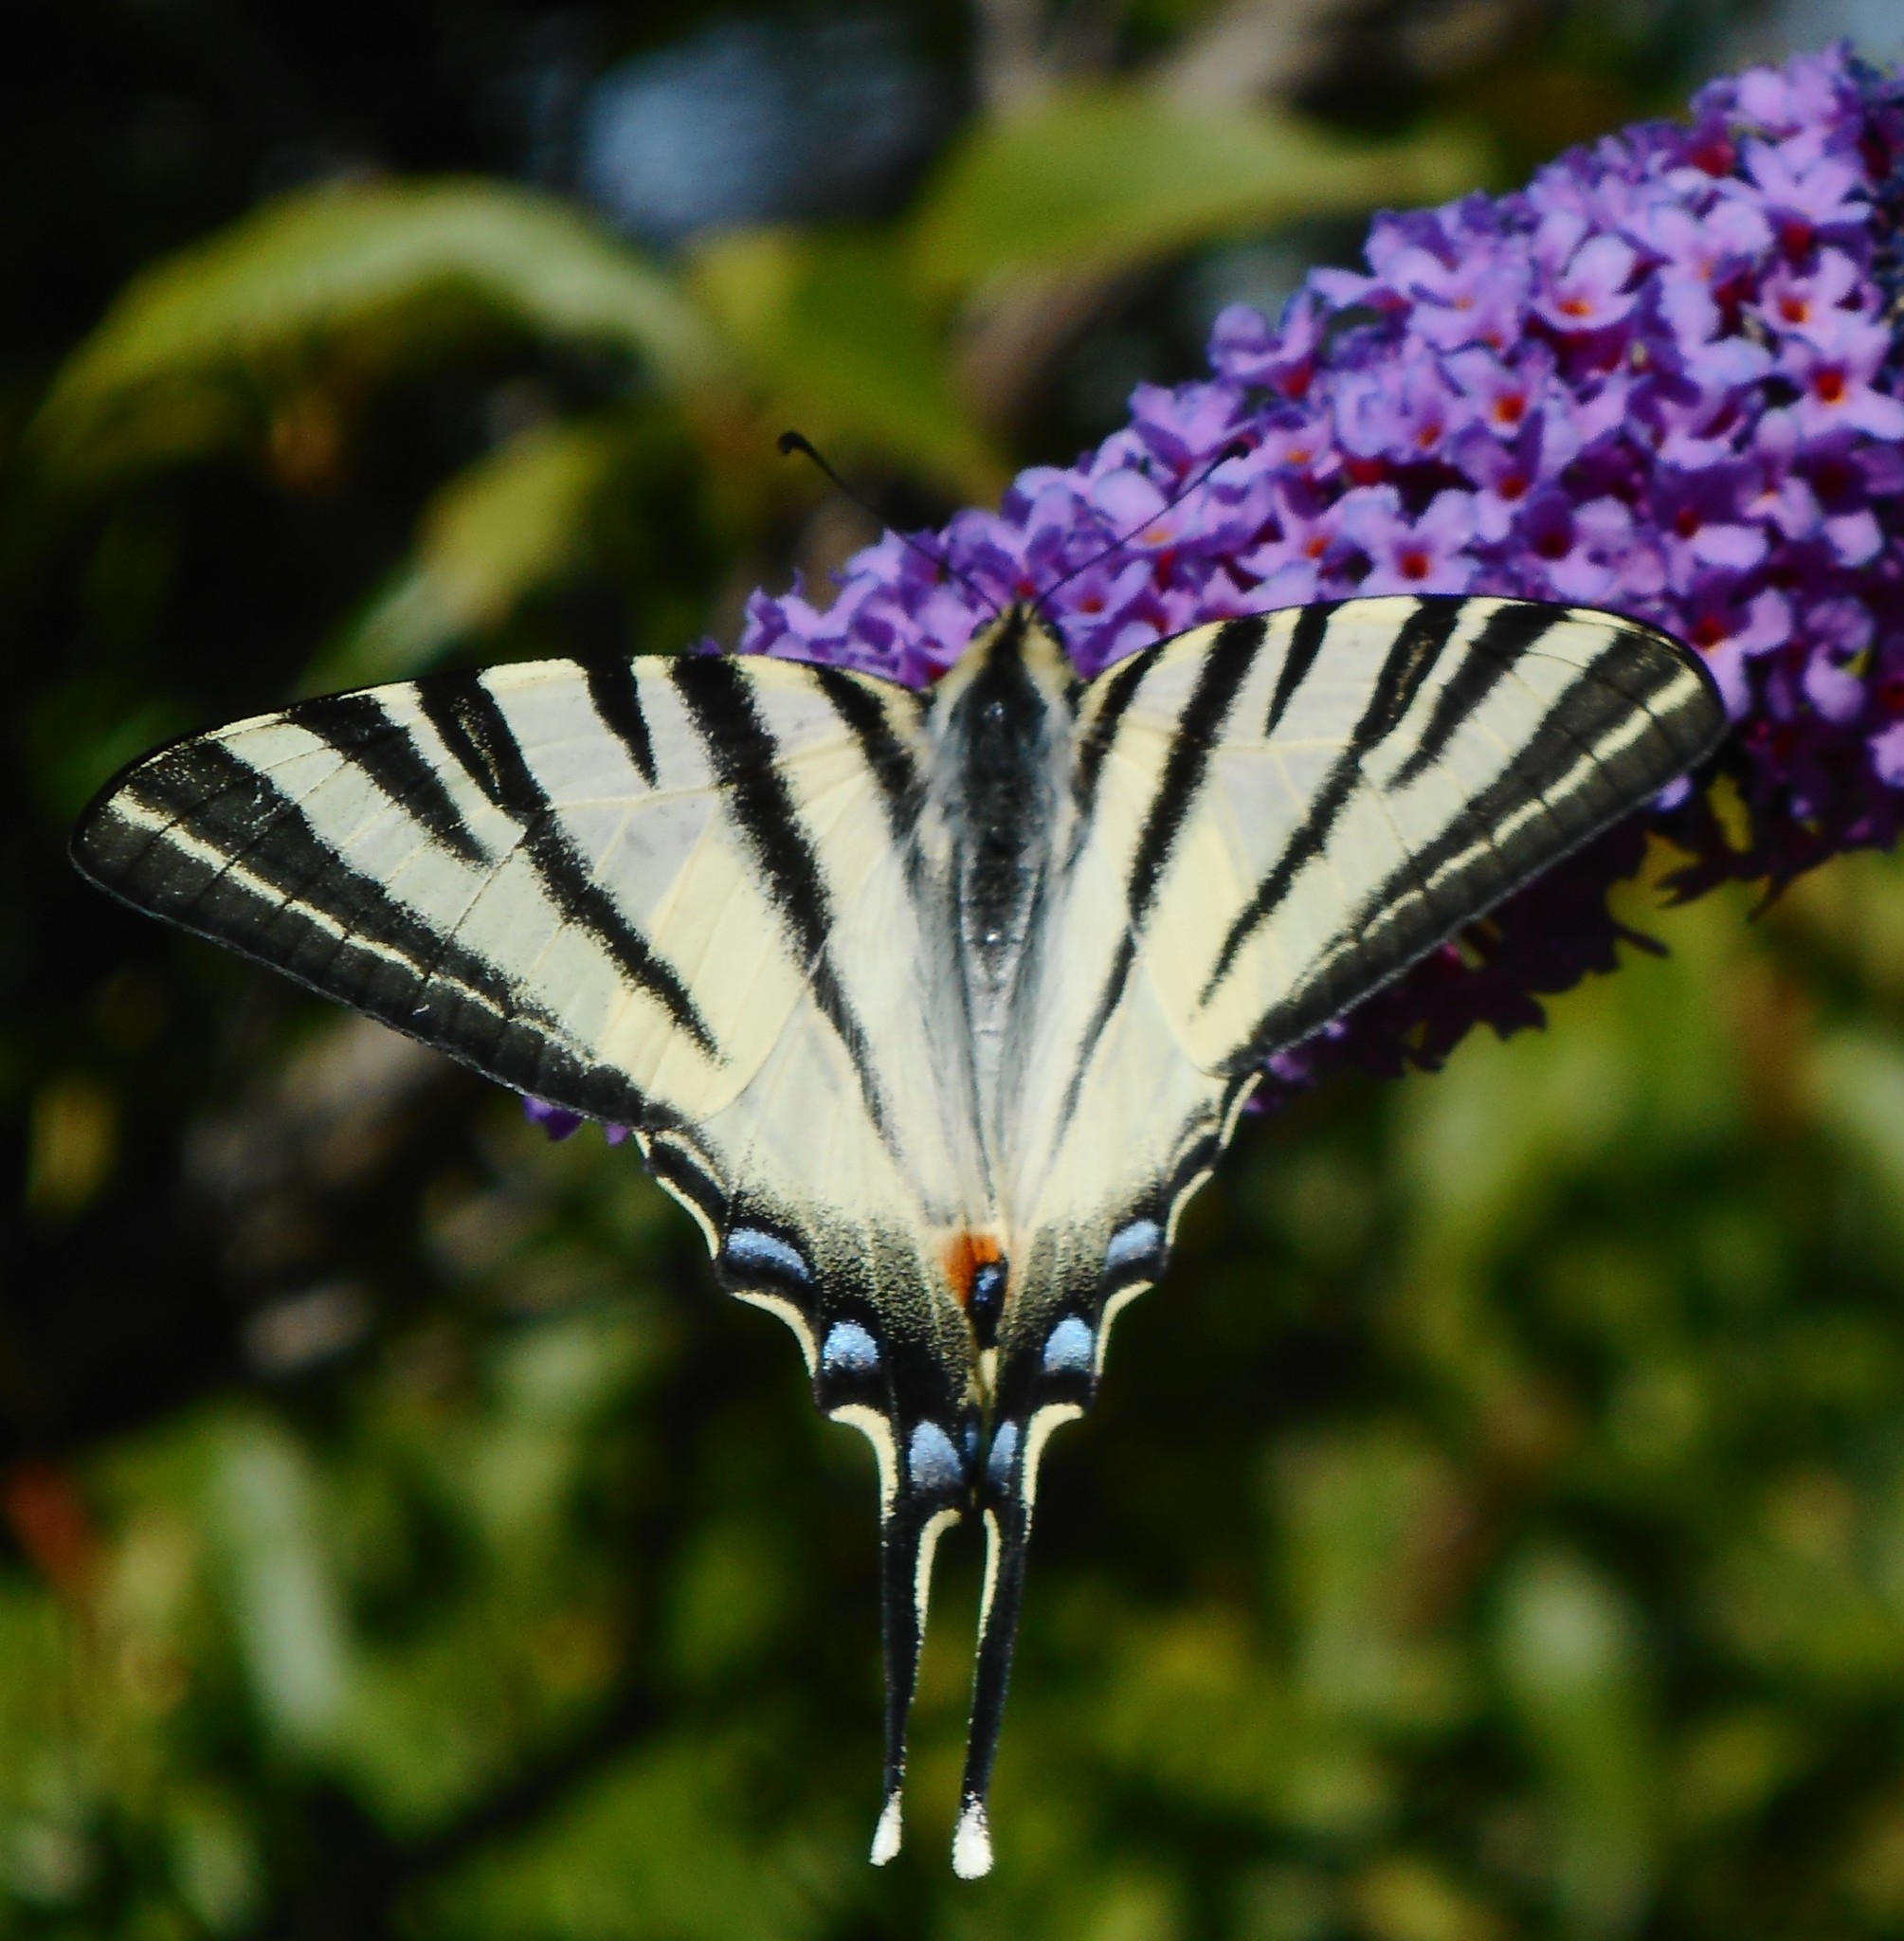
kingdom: Animalia
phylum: Arthropoda
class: Insecta
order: Lepidoptera
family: Papilionidae
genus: Iphiclides
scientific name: Iphiclides podalirius
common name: Scarce swallowtail
